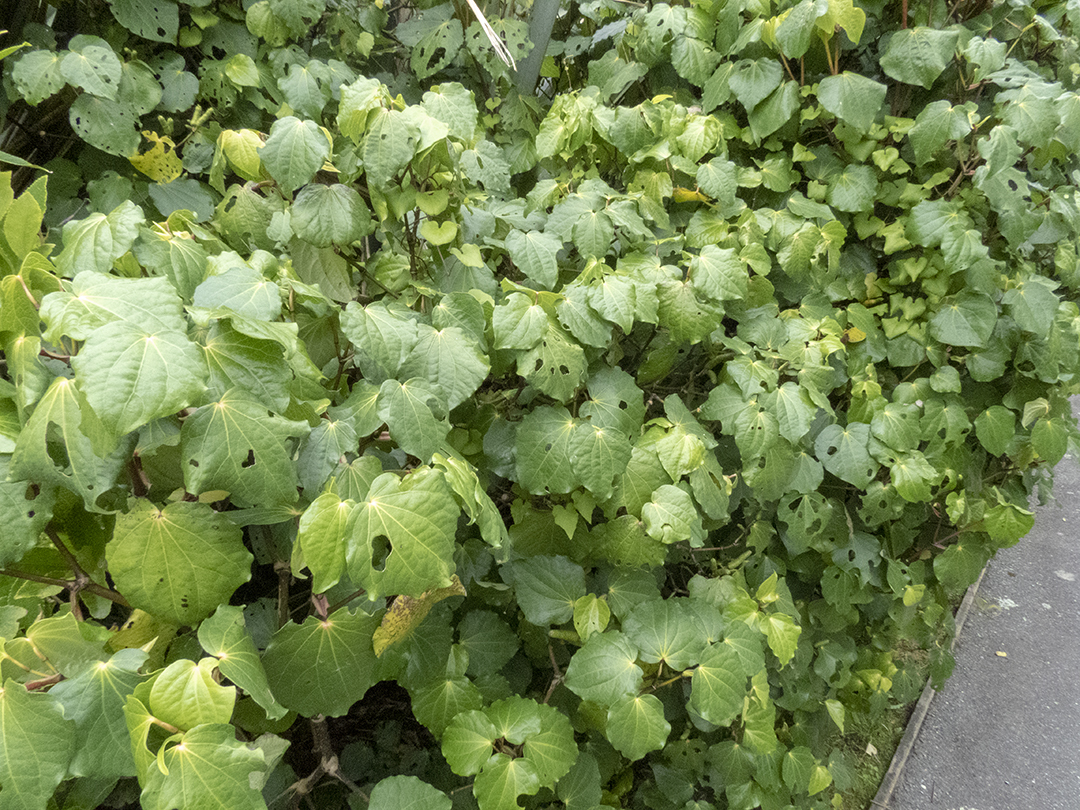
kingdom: Plantae
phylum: Tracheophyta
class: Magnoliopsida
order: Piperales
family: Piperaceae
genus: Macropiper
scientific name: Macropiper excelsum
